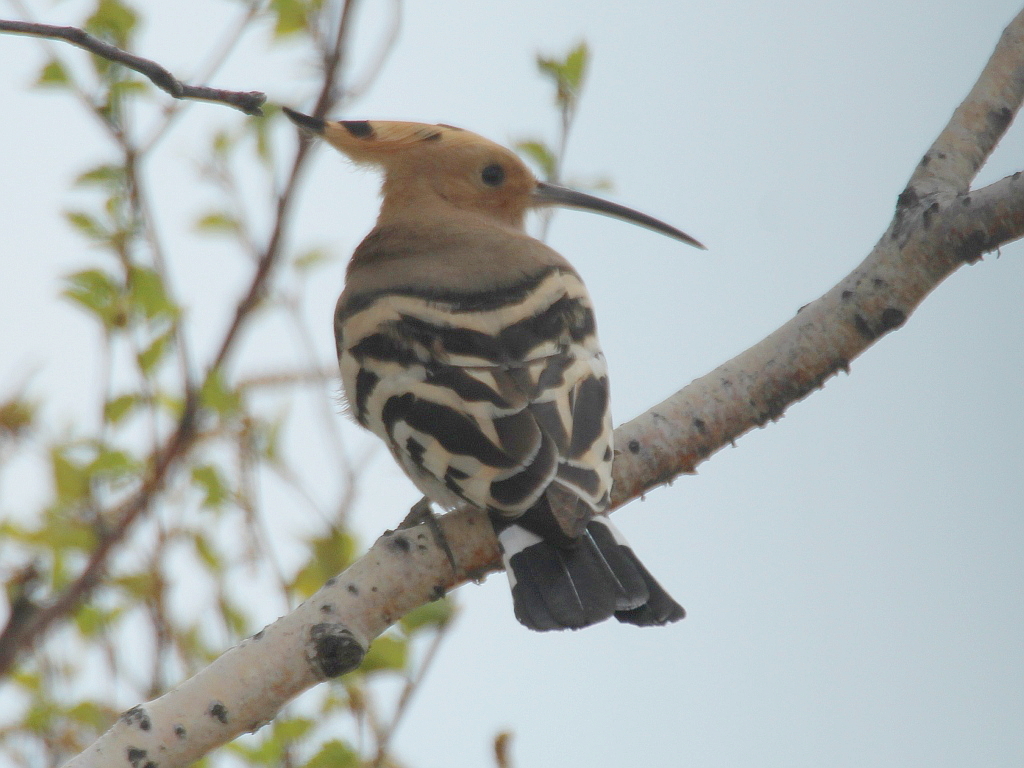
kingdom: Animalia
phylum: Chordata
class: Aves
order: Bucerotiformes
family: Upupidae
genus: Upupa
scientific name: Upupa epops
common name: Eurasian hoopoe
